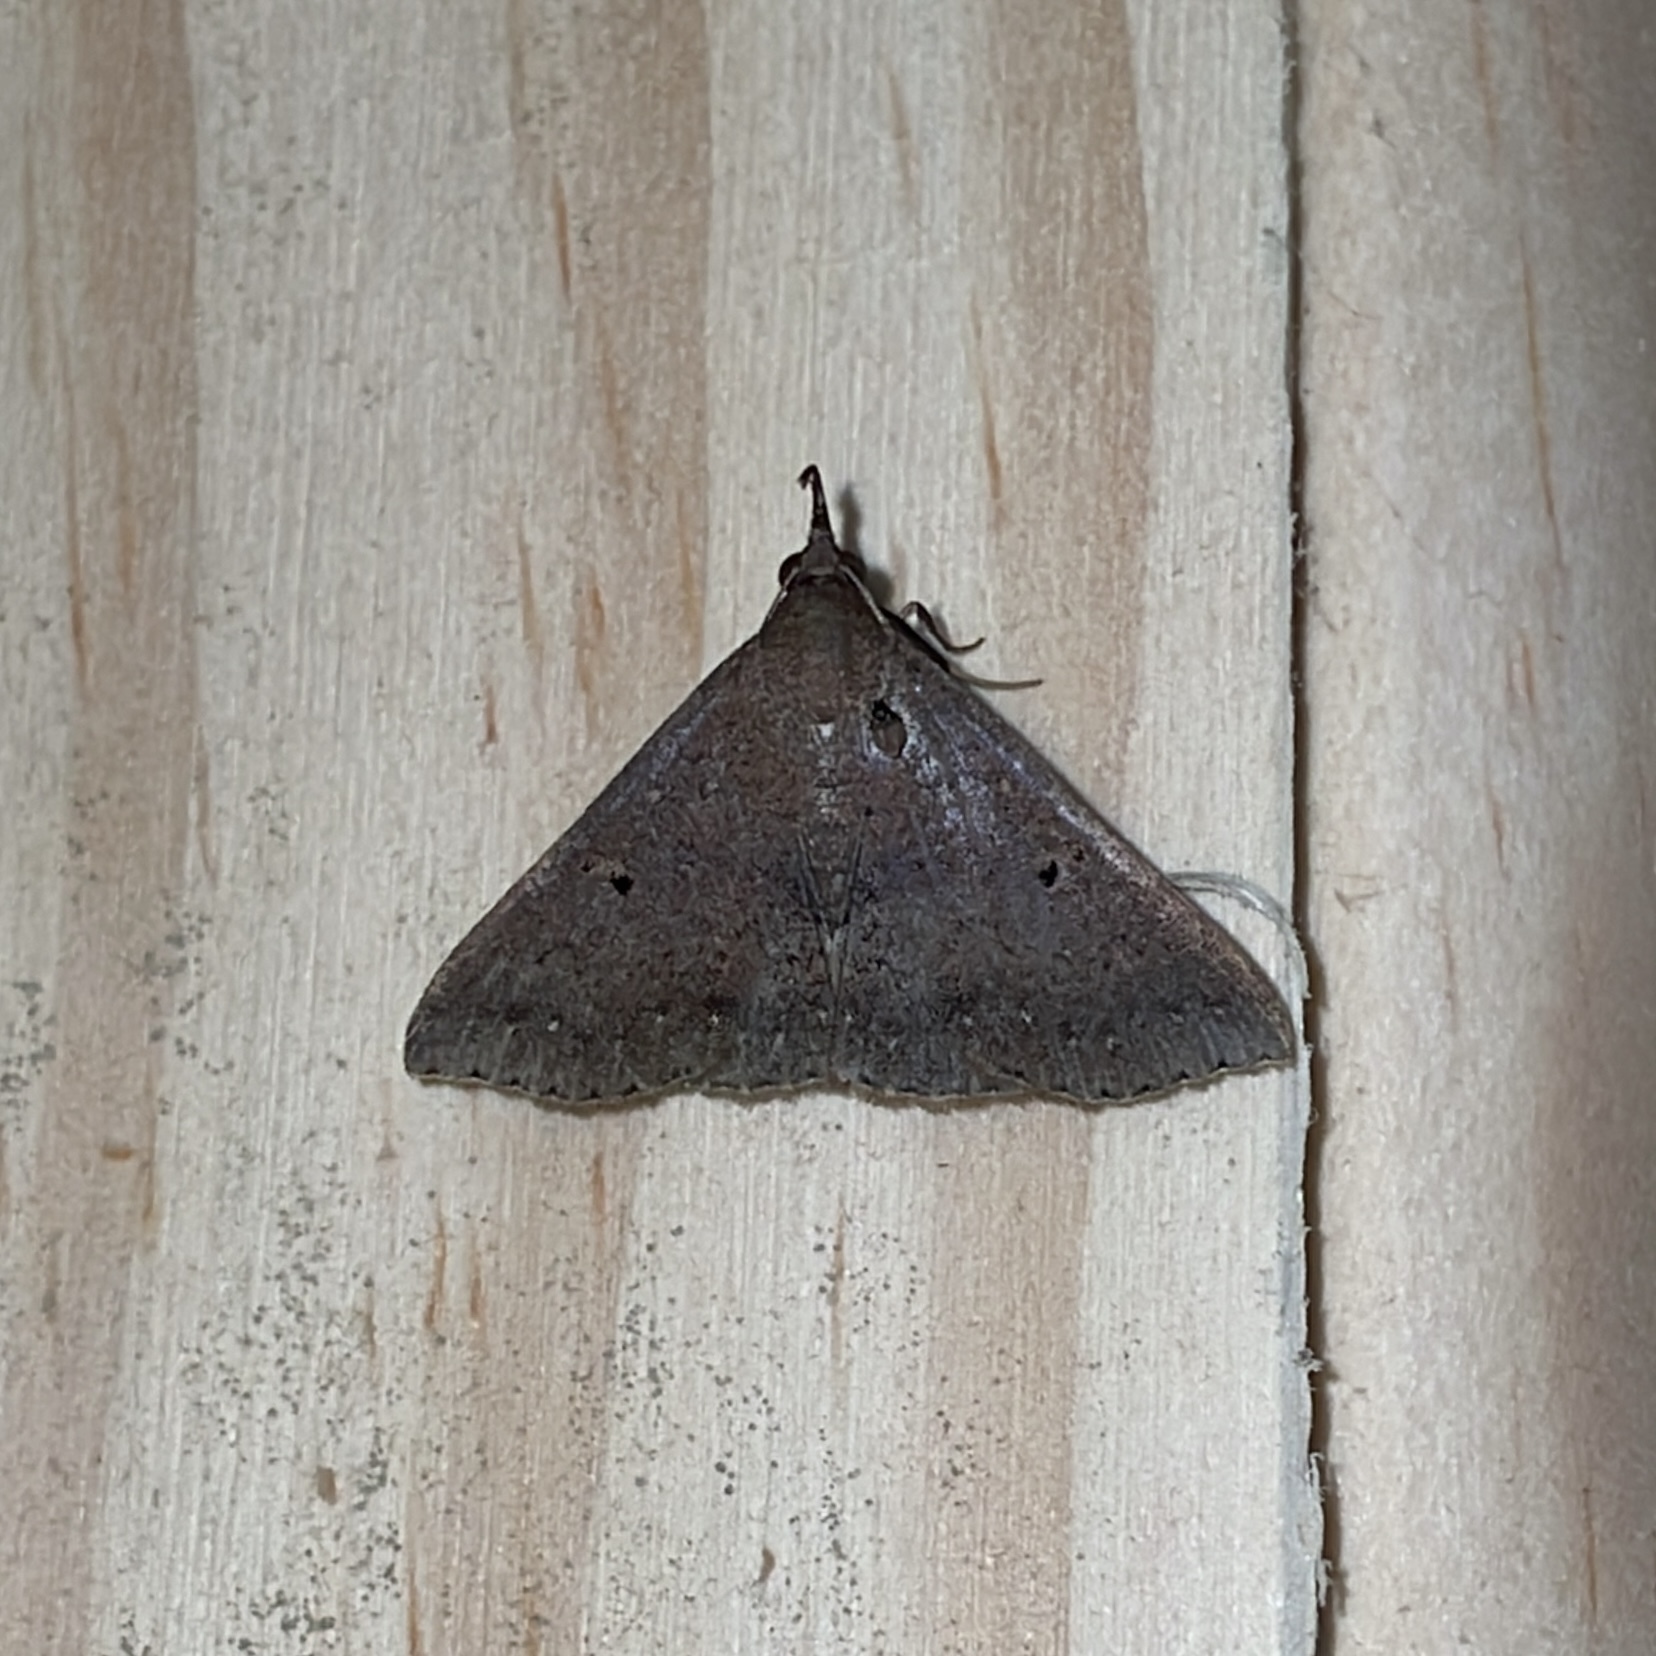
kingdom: Animalia
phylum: Arthropoda
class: Insecta
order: Lepidoptera
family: Erebidae
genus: Renia
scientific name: Renia bipunctata
